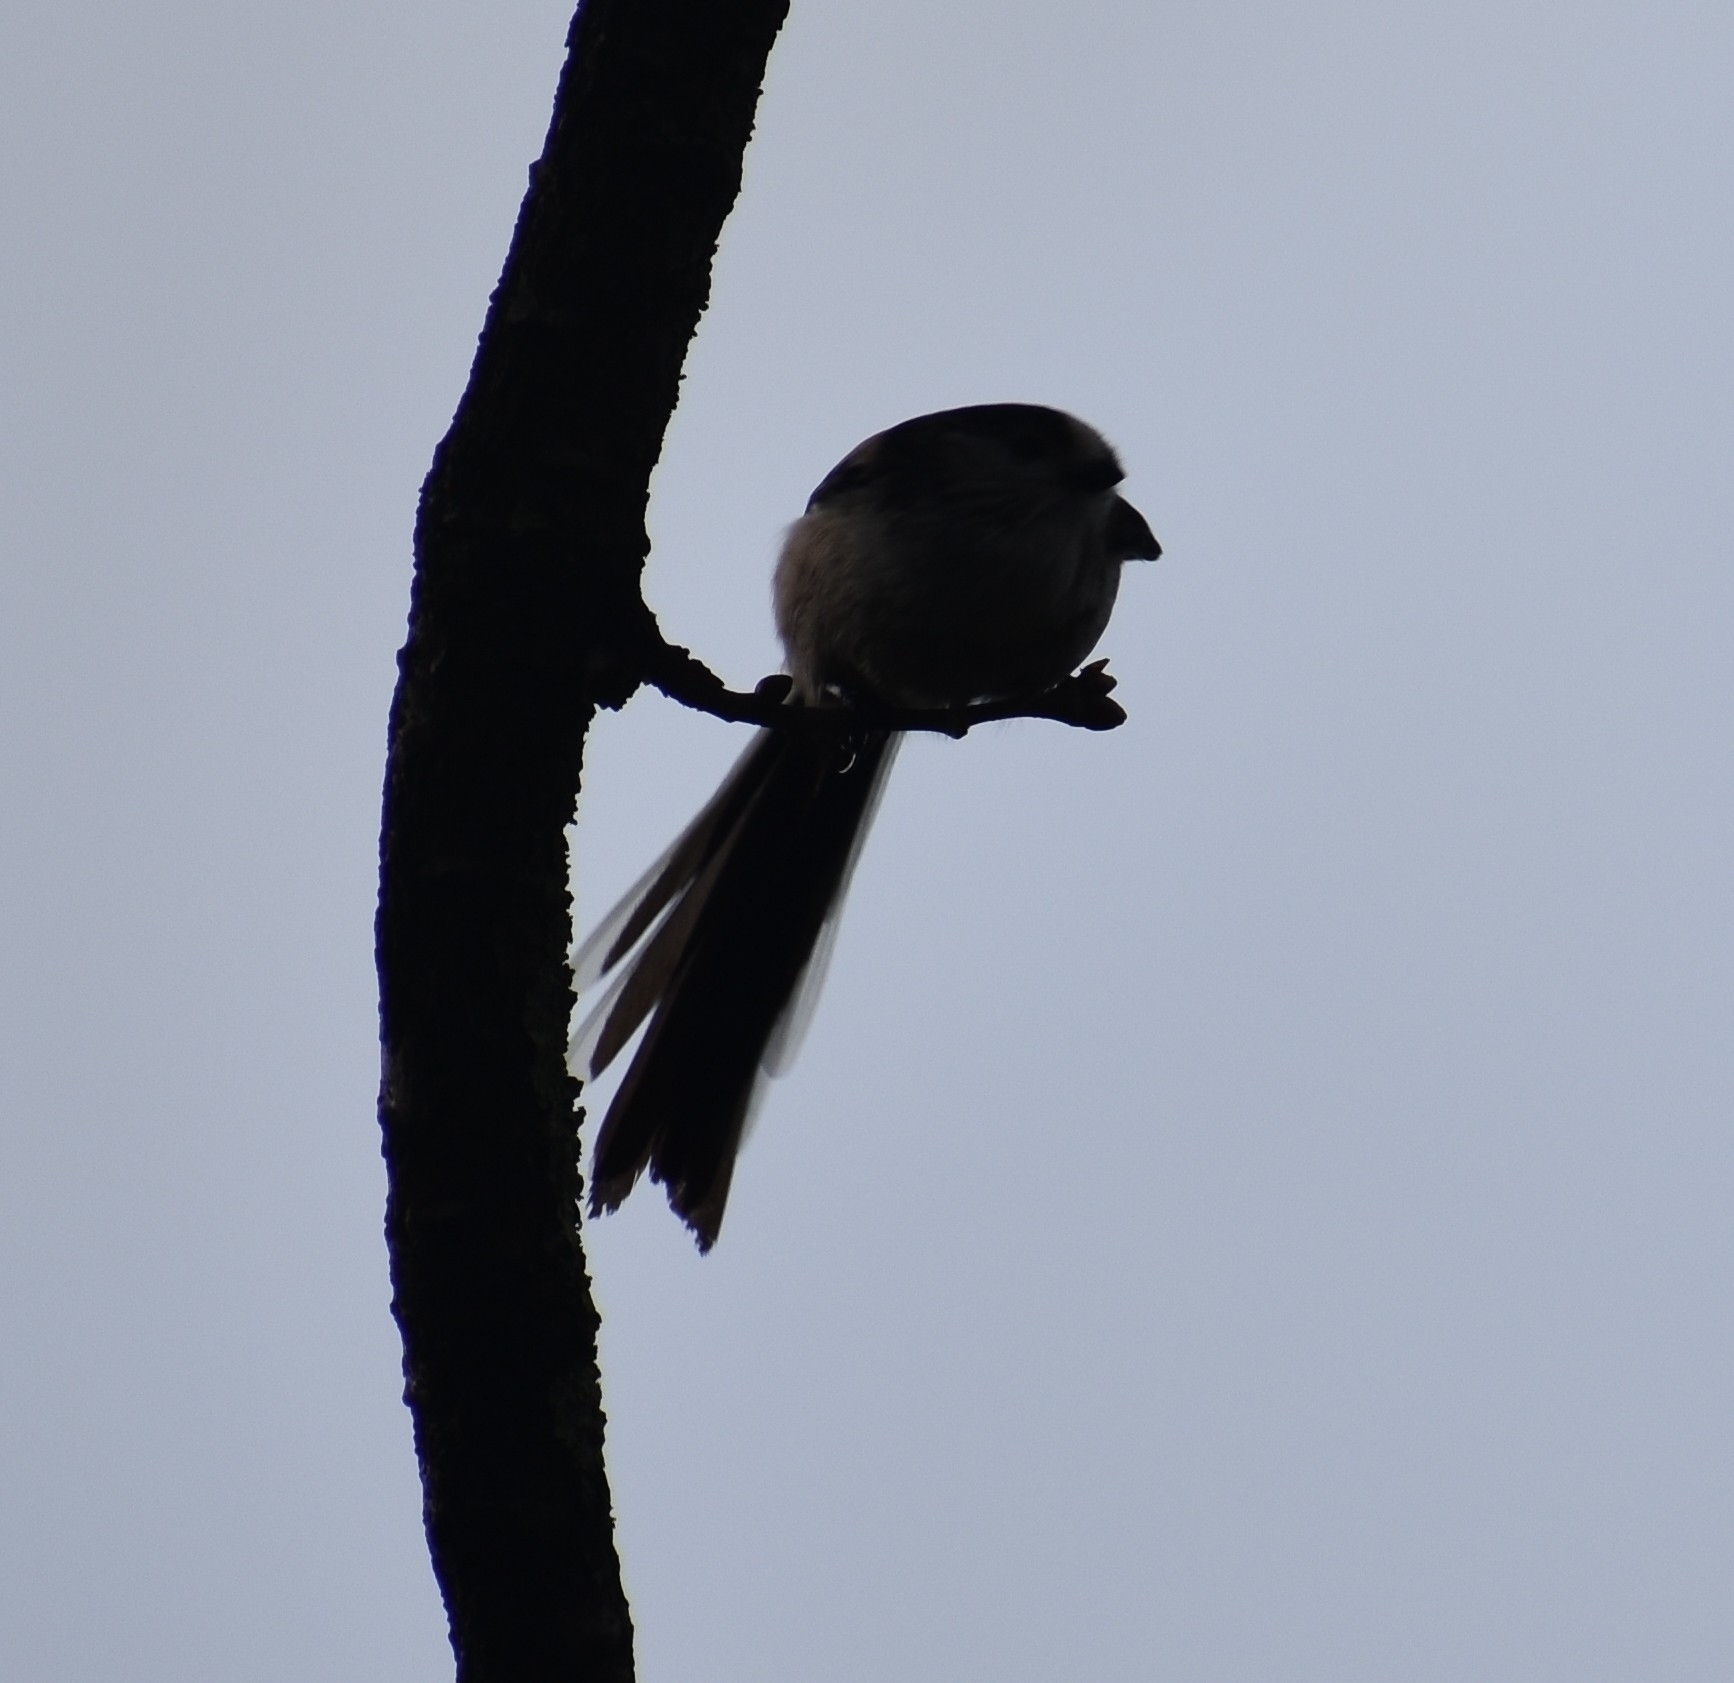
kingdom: Animalia
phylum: Chordata
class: Aves
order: Passeriformes
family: Aegithalidae
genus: Aegithalos
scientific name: Aegithalos caudatus
